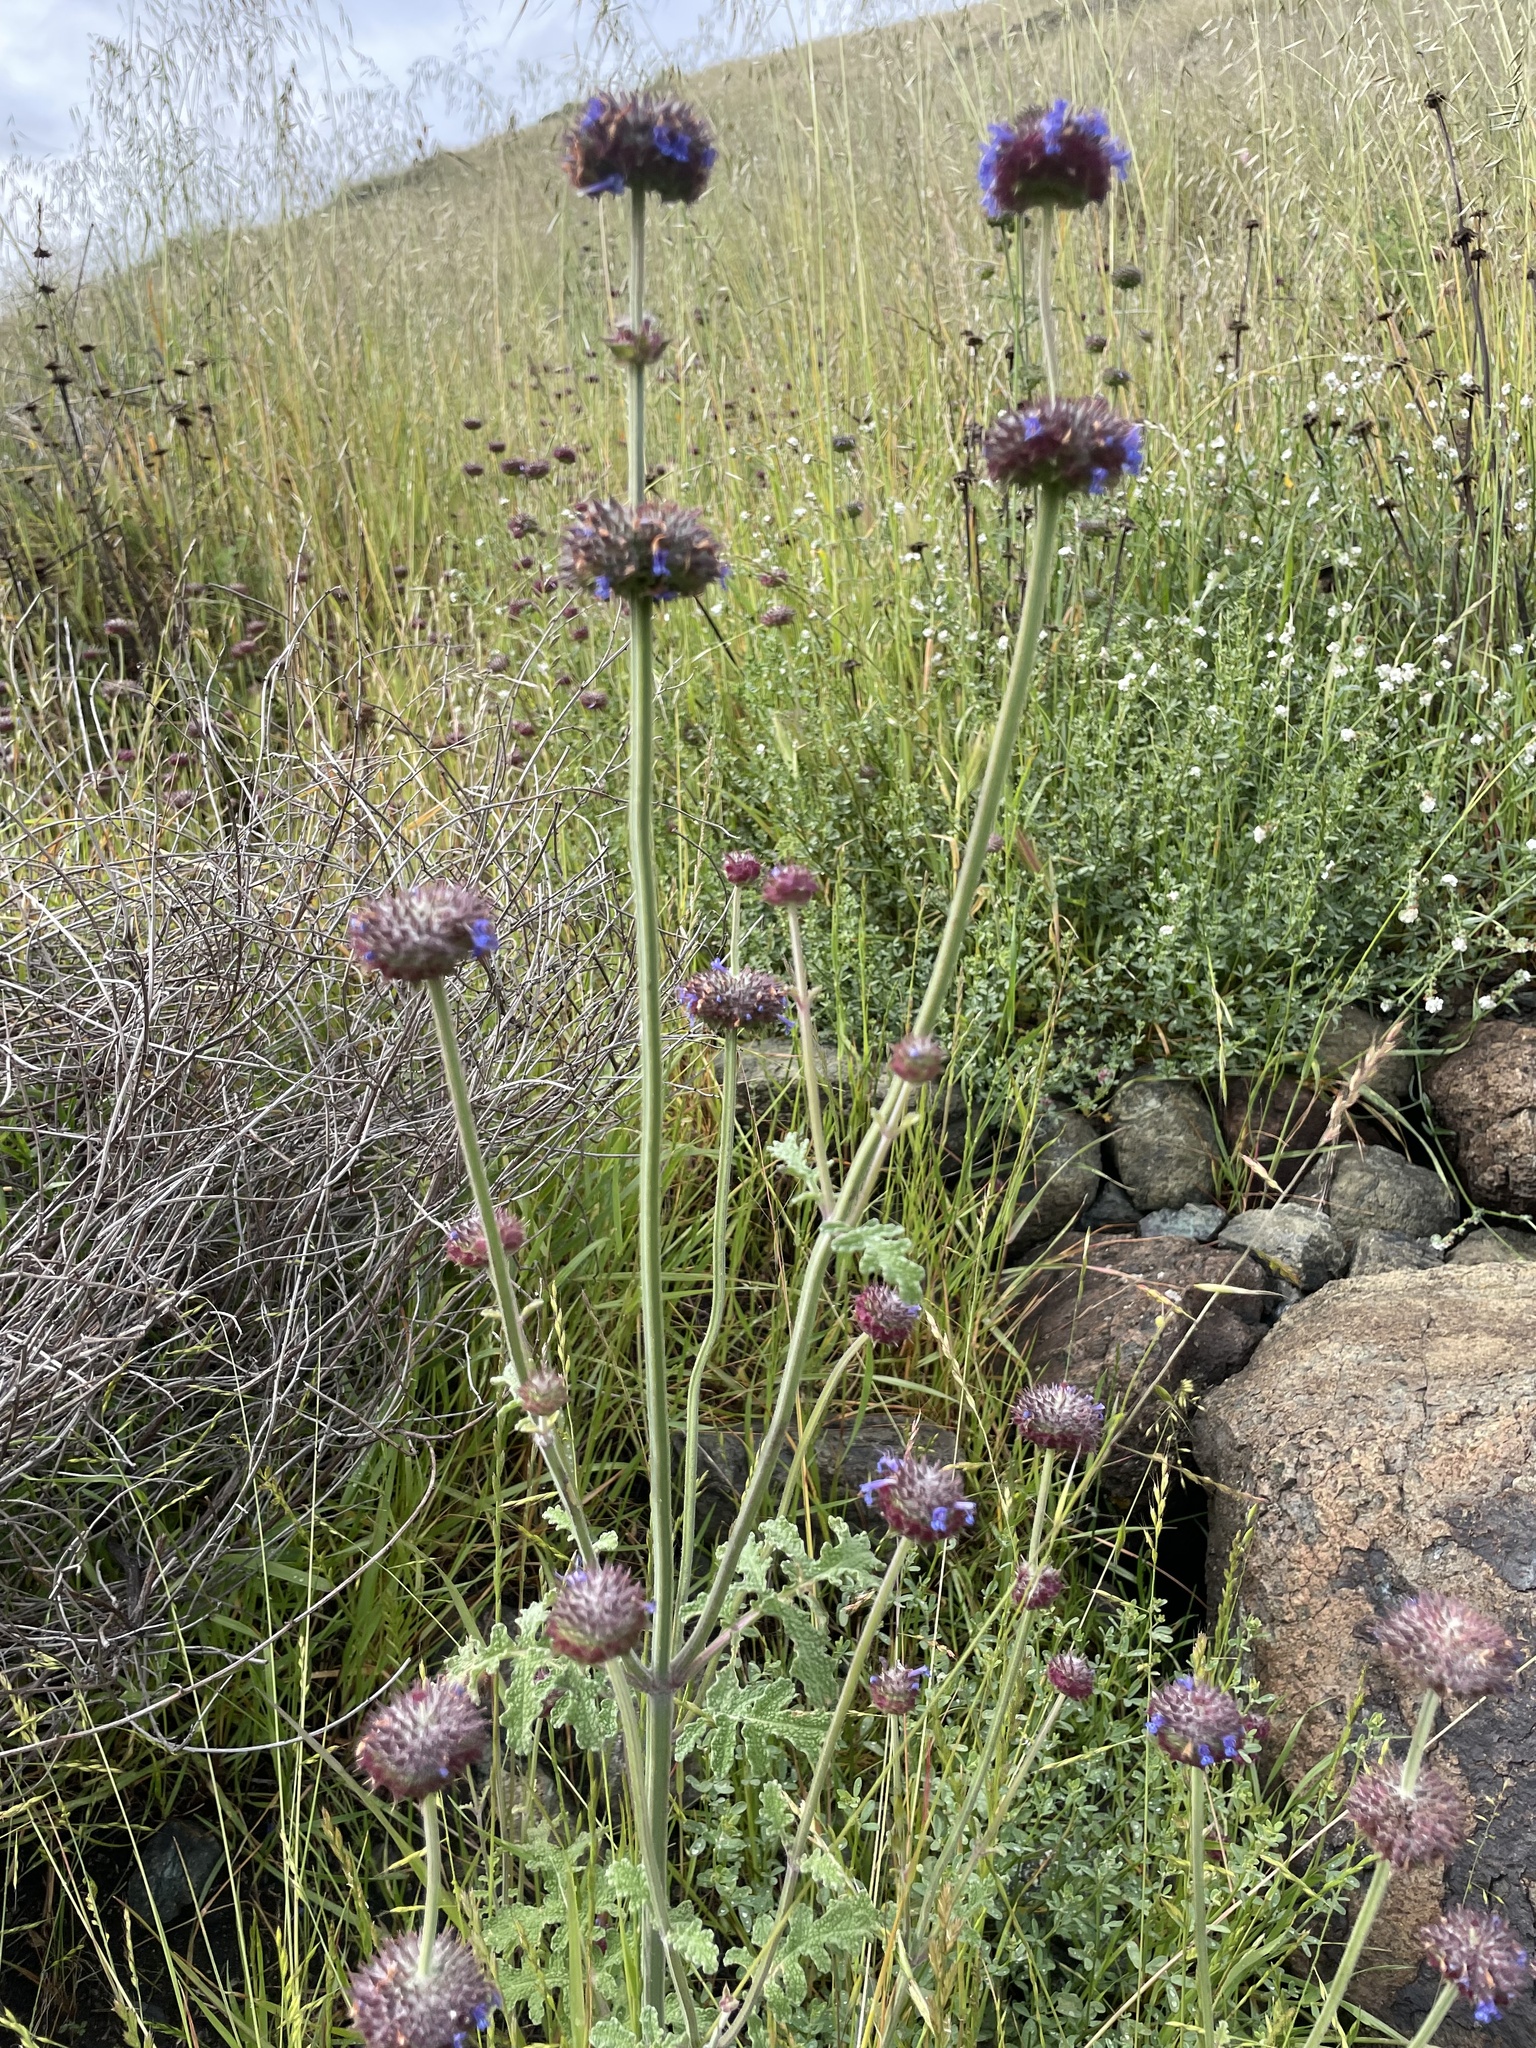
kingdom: Plantae
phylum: Tracheophyta
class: Magnoliopsida
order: Lamiales
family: Lamiaceae
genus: Salvia
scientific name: Salvia columbariae
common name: Chia
